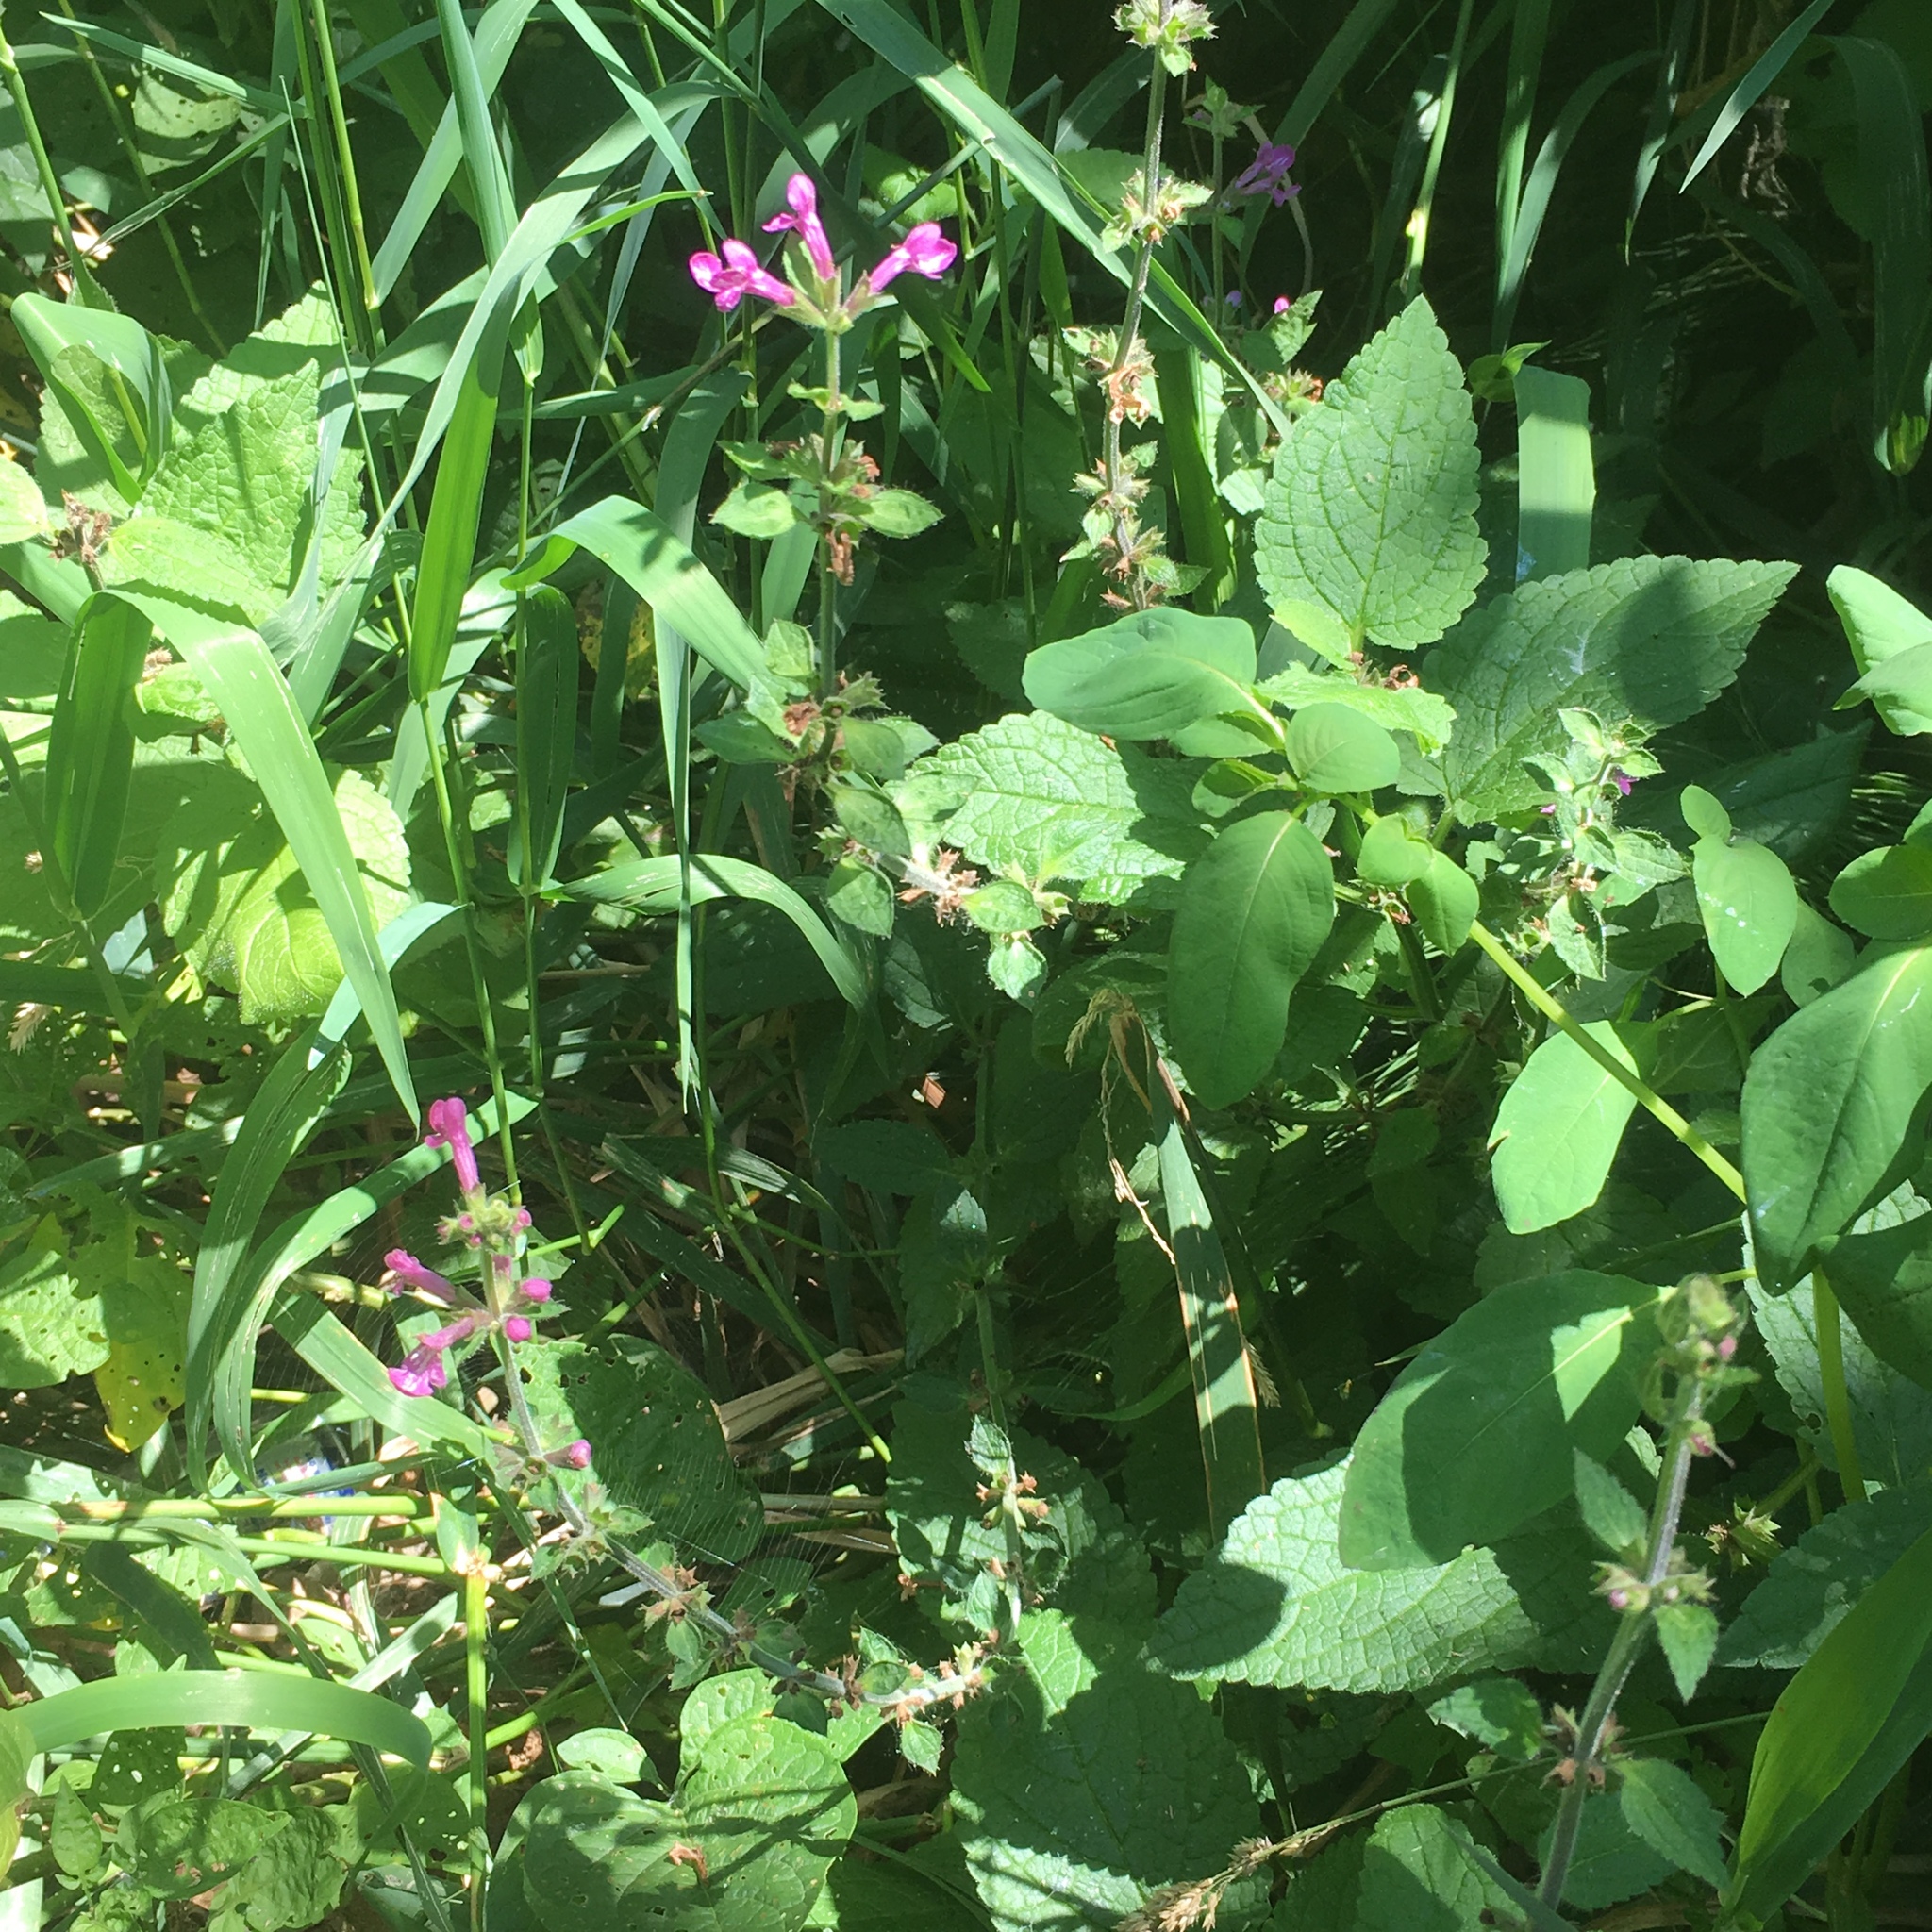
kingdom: Plantae
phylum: Tracheophyta
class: Magnoliopsida
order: Lamiales
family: Lamiaceae
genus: Stachys
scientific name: Stachys chamissonis
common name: Coastal hedge-nettle
